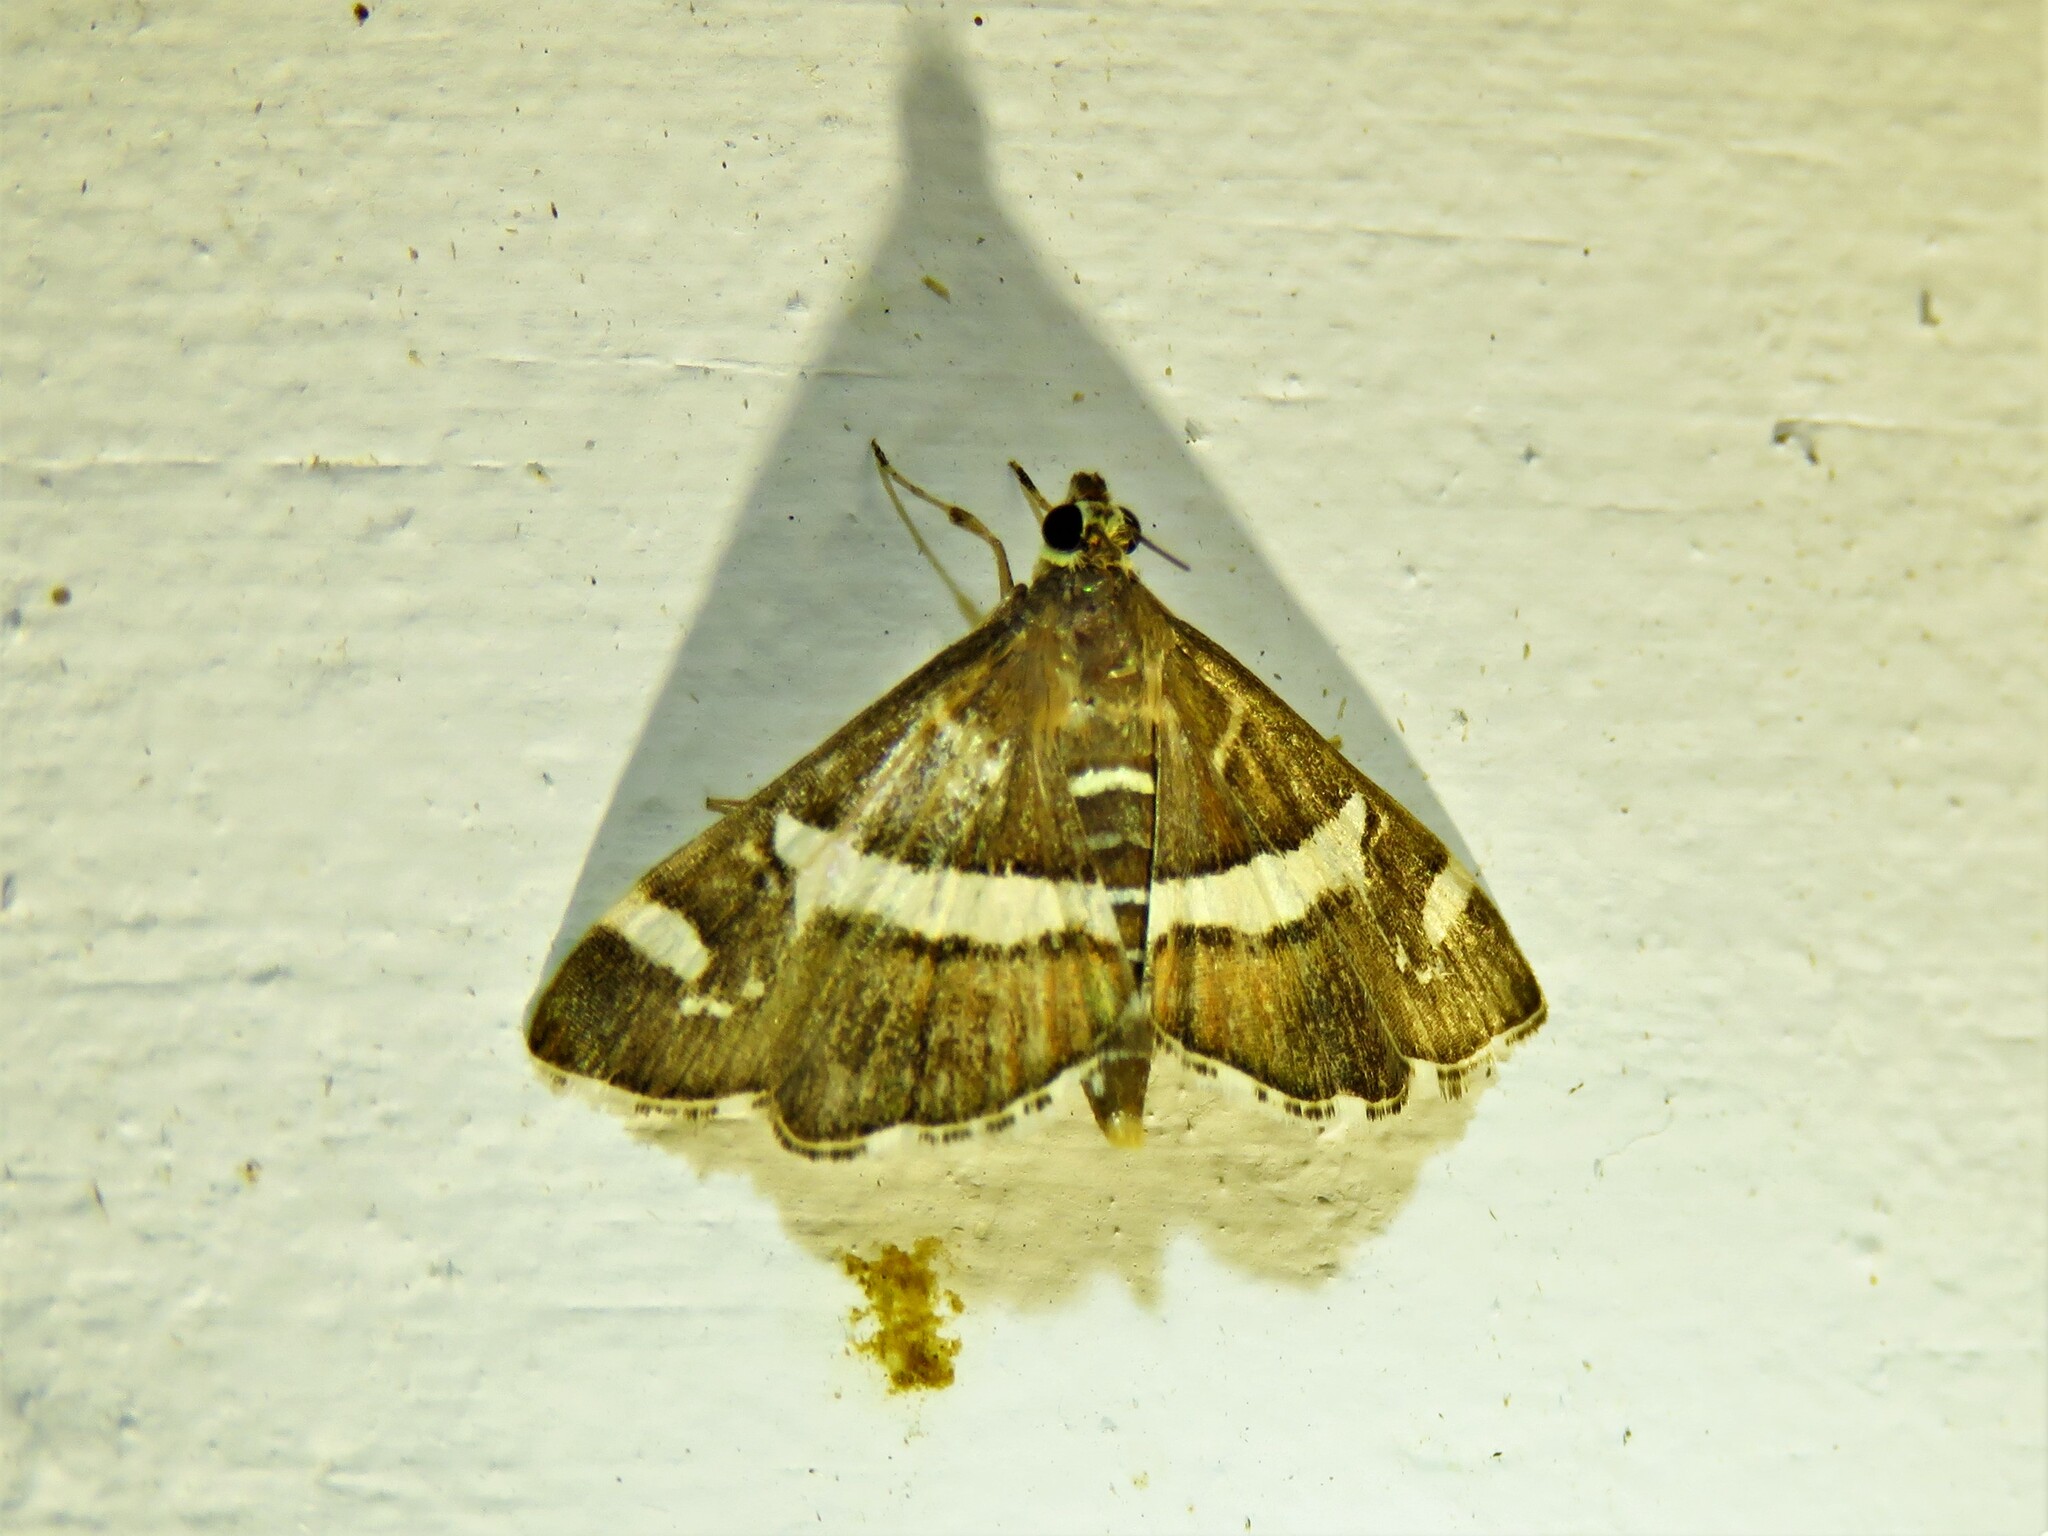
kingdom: Animalia
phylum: Arthropoda
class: Insecta
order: Lepidoptera
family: Crambidae
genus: Spoladea
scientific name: Spoladea recurvalis
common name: Beet webworm moth
